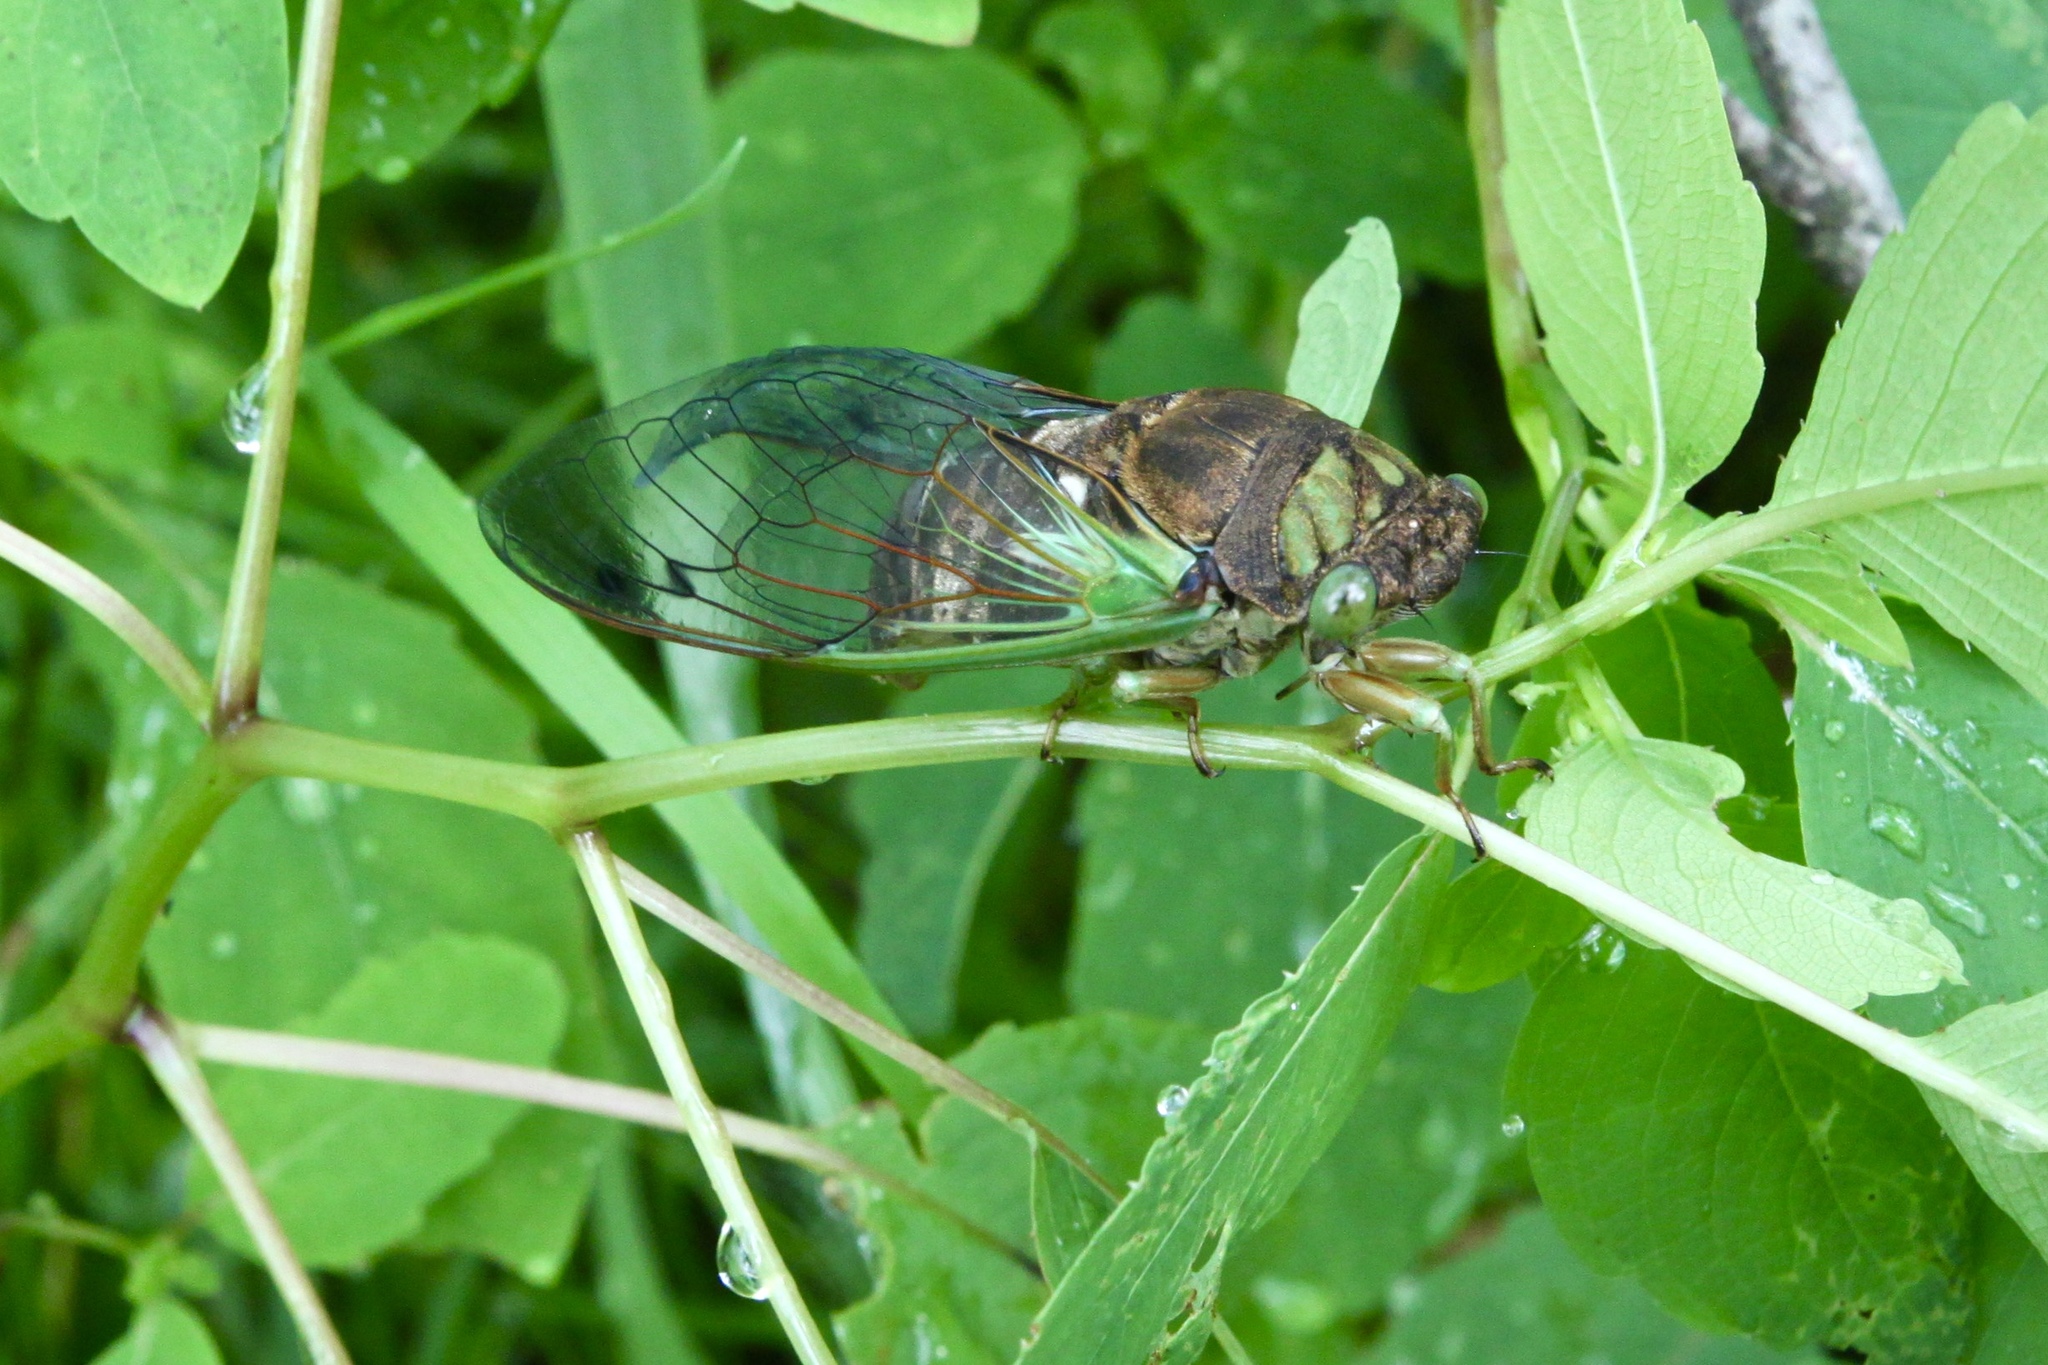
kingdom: Animalia
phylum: Arthropoda
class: Insecta
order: Hemiptera
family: Cicadidae
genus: Neotibicen
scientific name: Neotibicen tibicen
